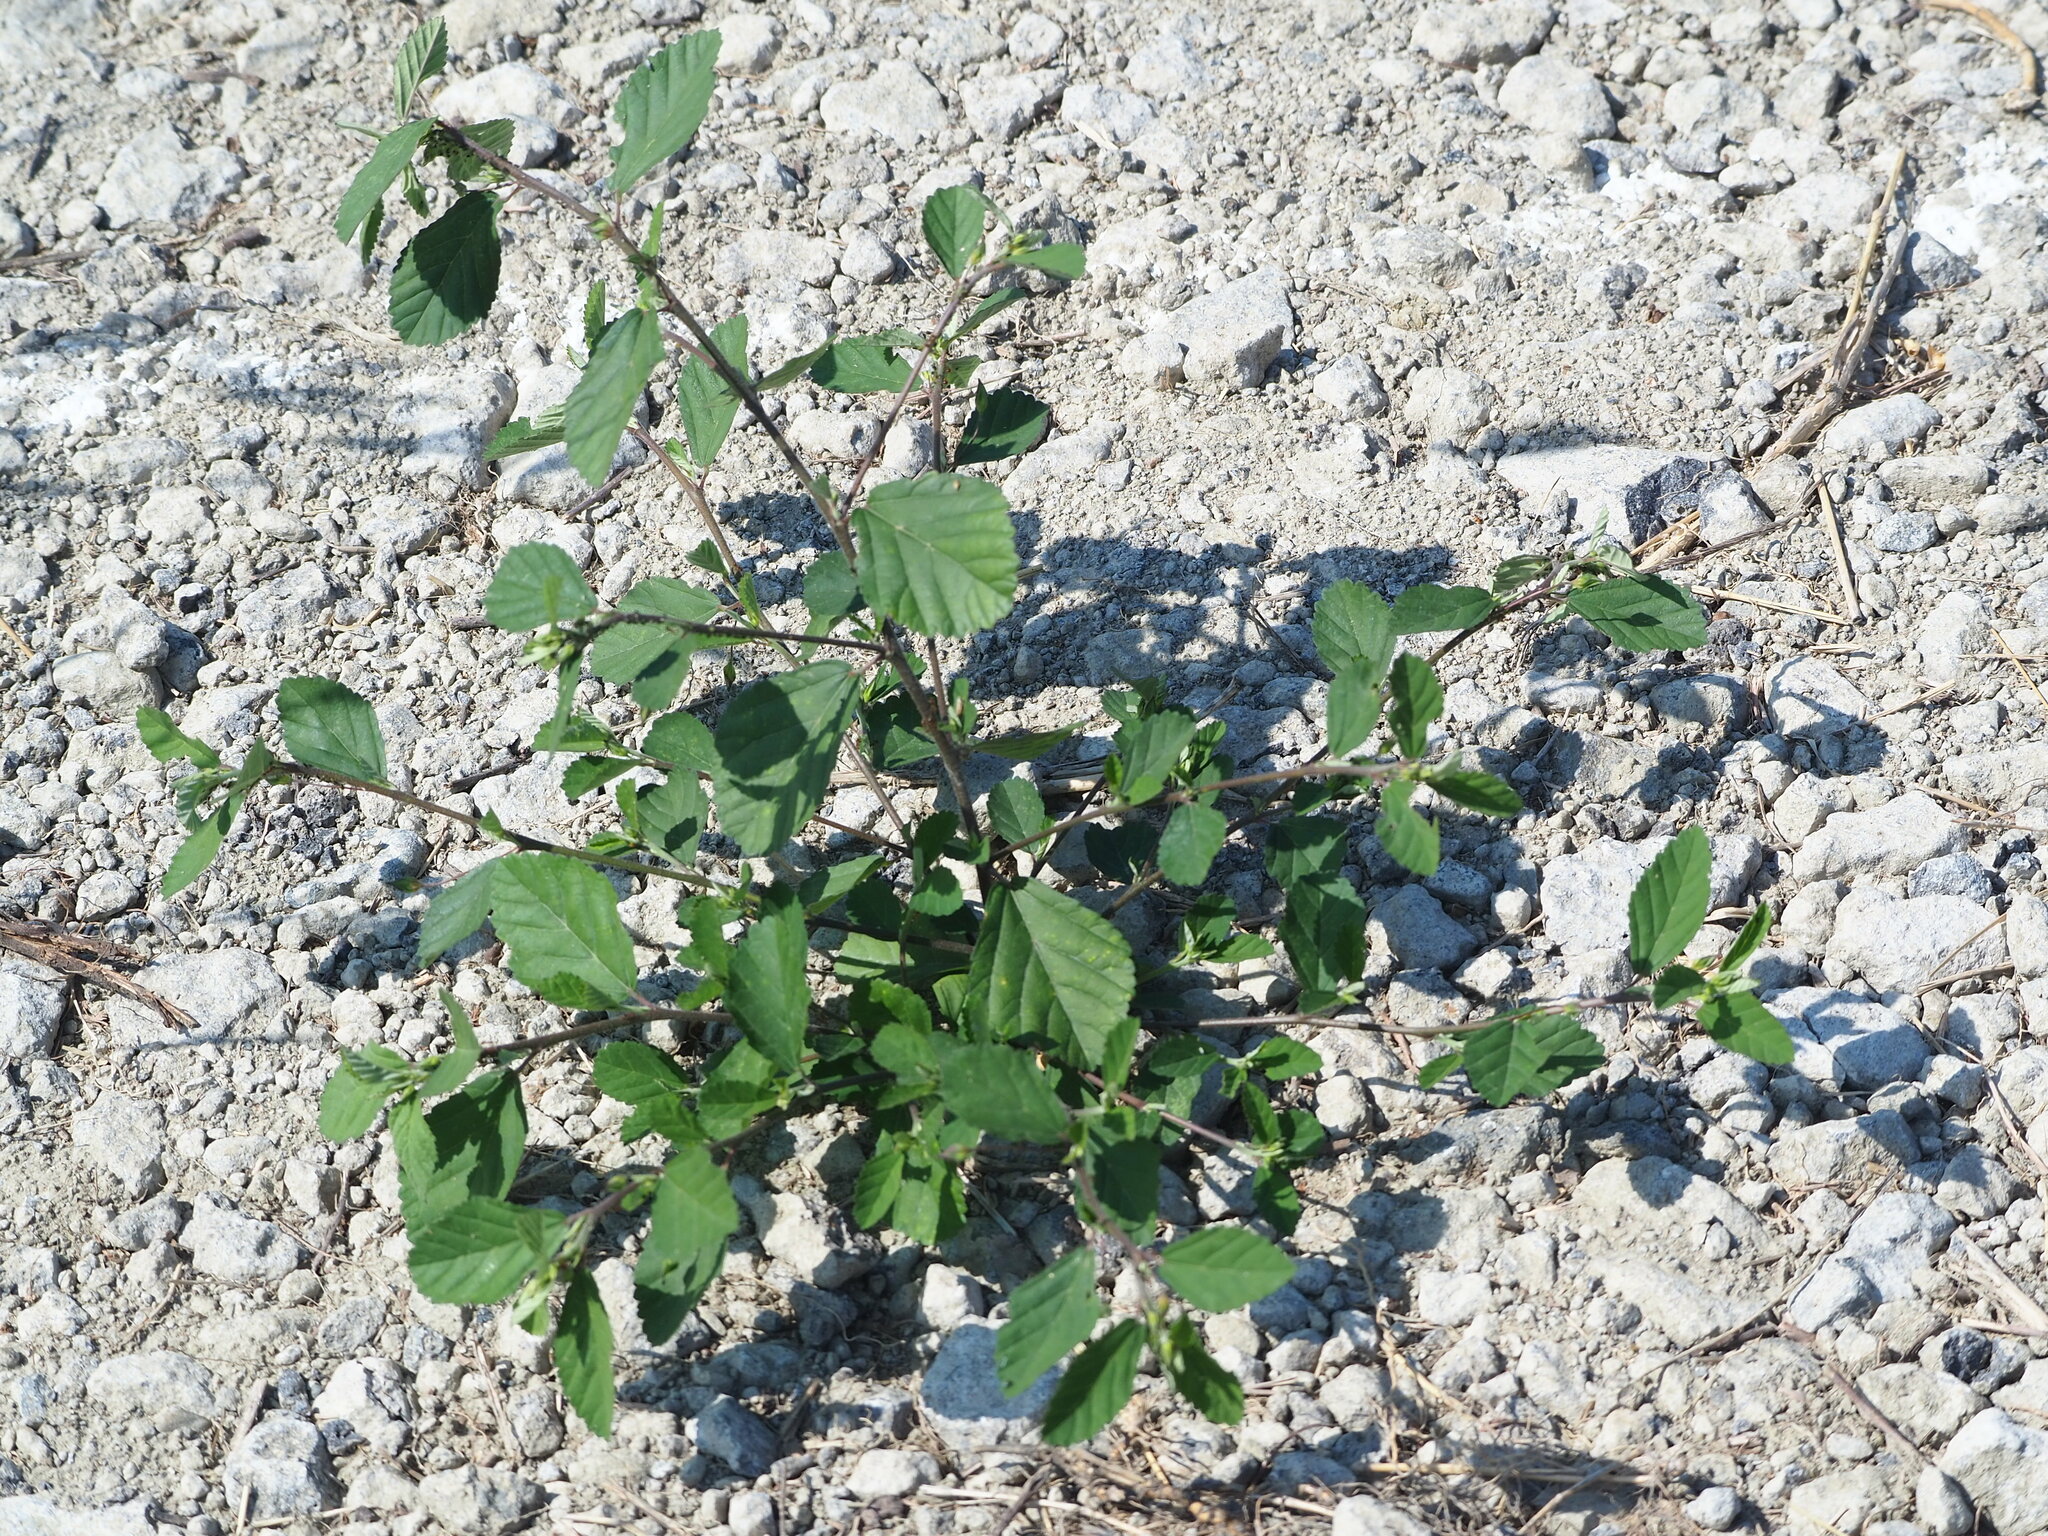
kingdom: Plantae
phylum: Tracheophyta
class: Magnoliopsida
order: Malvales
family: Malvaceae
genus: Sida
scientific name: Sida rhombifolia
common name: Queensland-hemp
